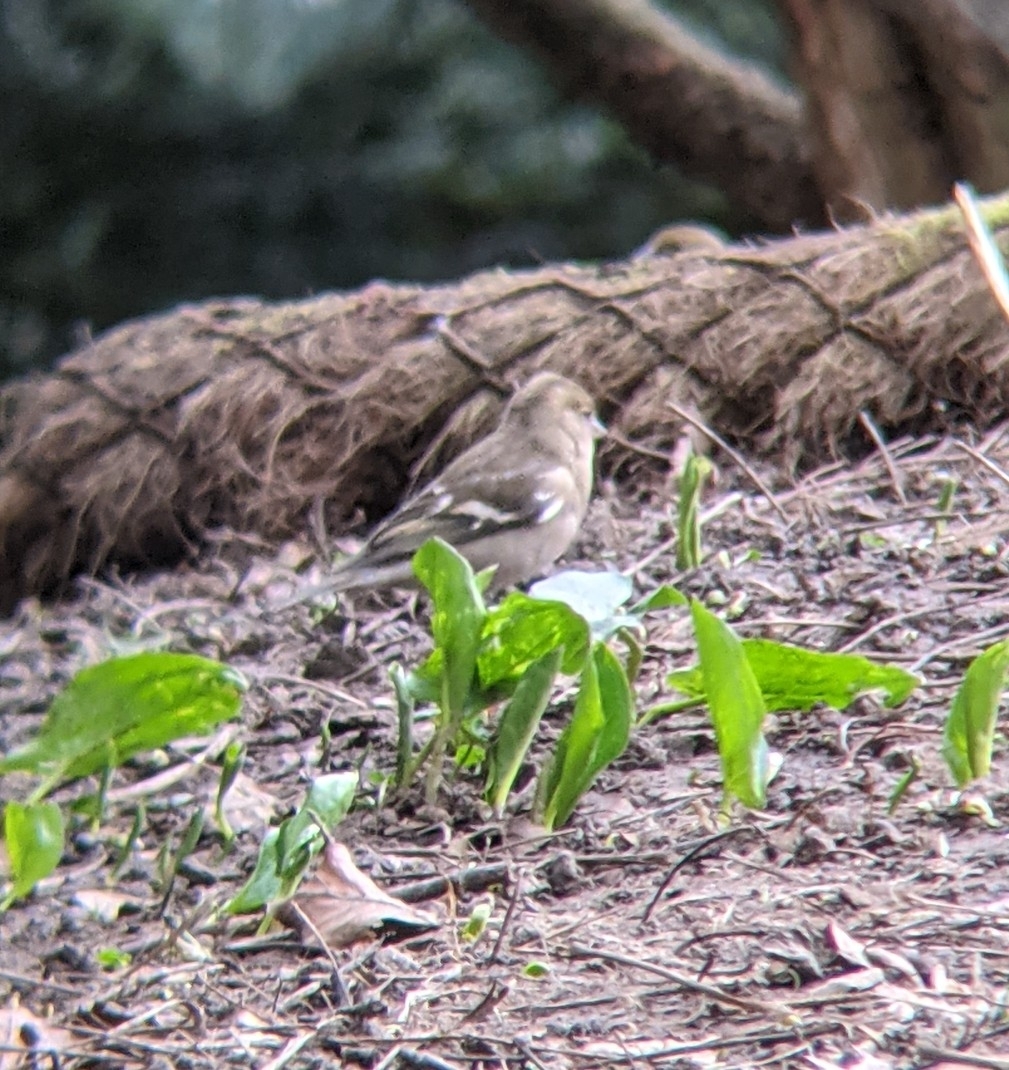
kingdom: Animalia
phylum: Chordata
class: Aves
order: Passeriformes
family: Fringillidae
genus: Fringilla
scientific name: Fringilla coelebs
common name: Common chaffinch
